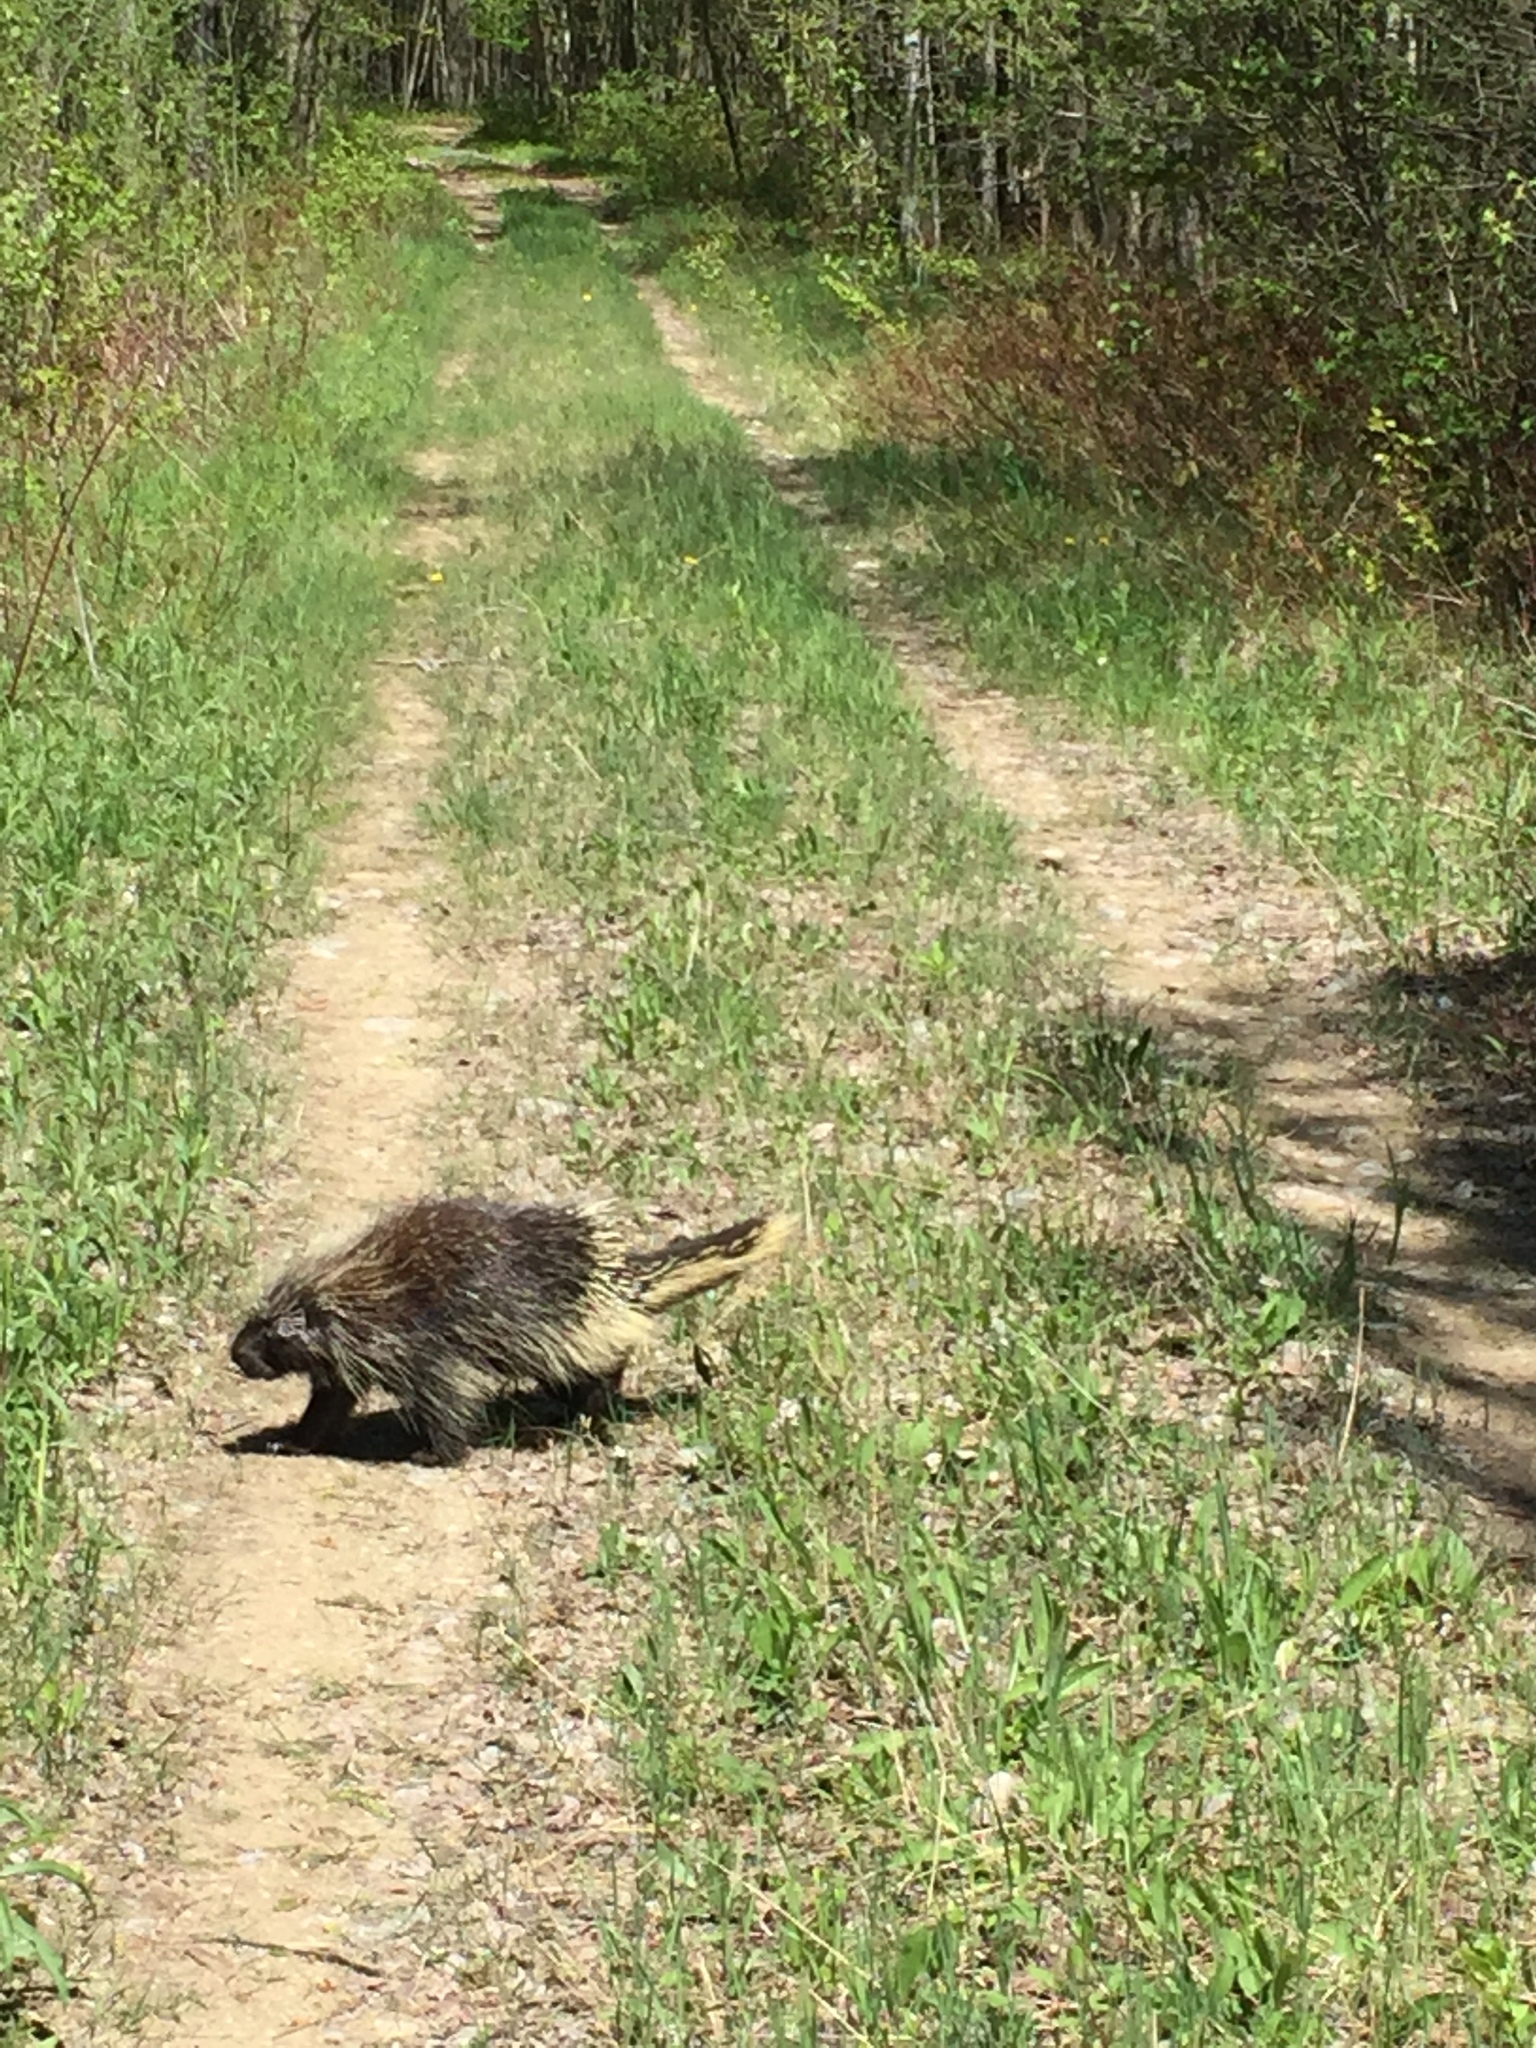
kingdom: Animalia
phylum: Chordata
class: Mammalia
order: Rodentia
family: Erethizontidae
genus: Erethizon
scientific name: Erethizon dorsatus
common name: North american porcupine
